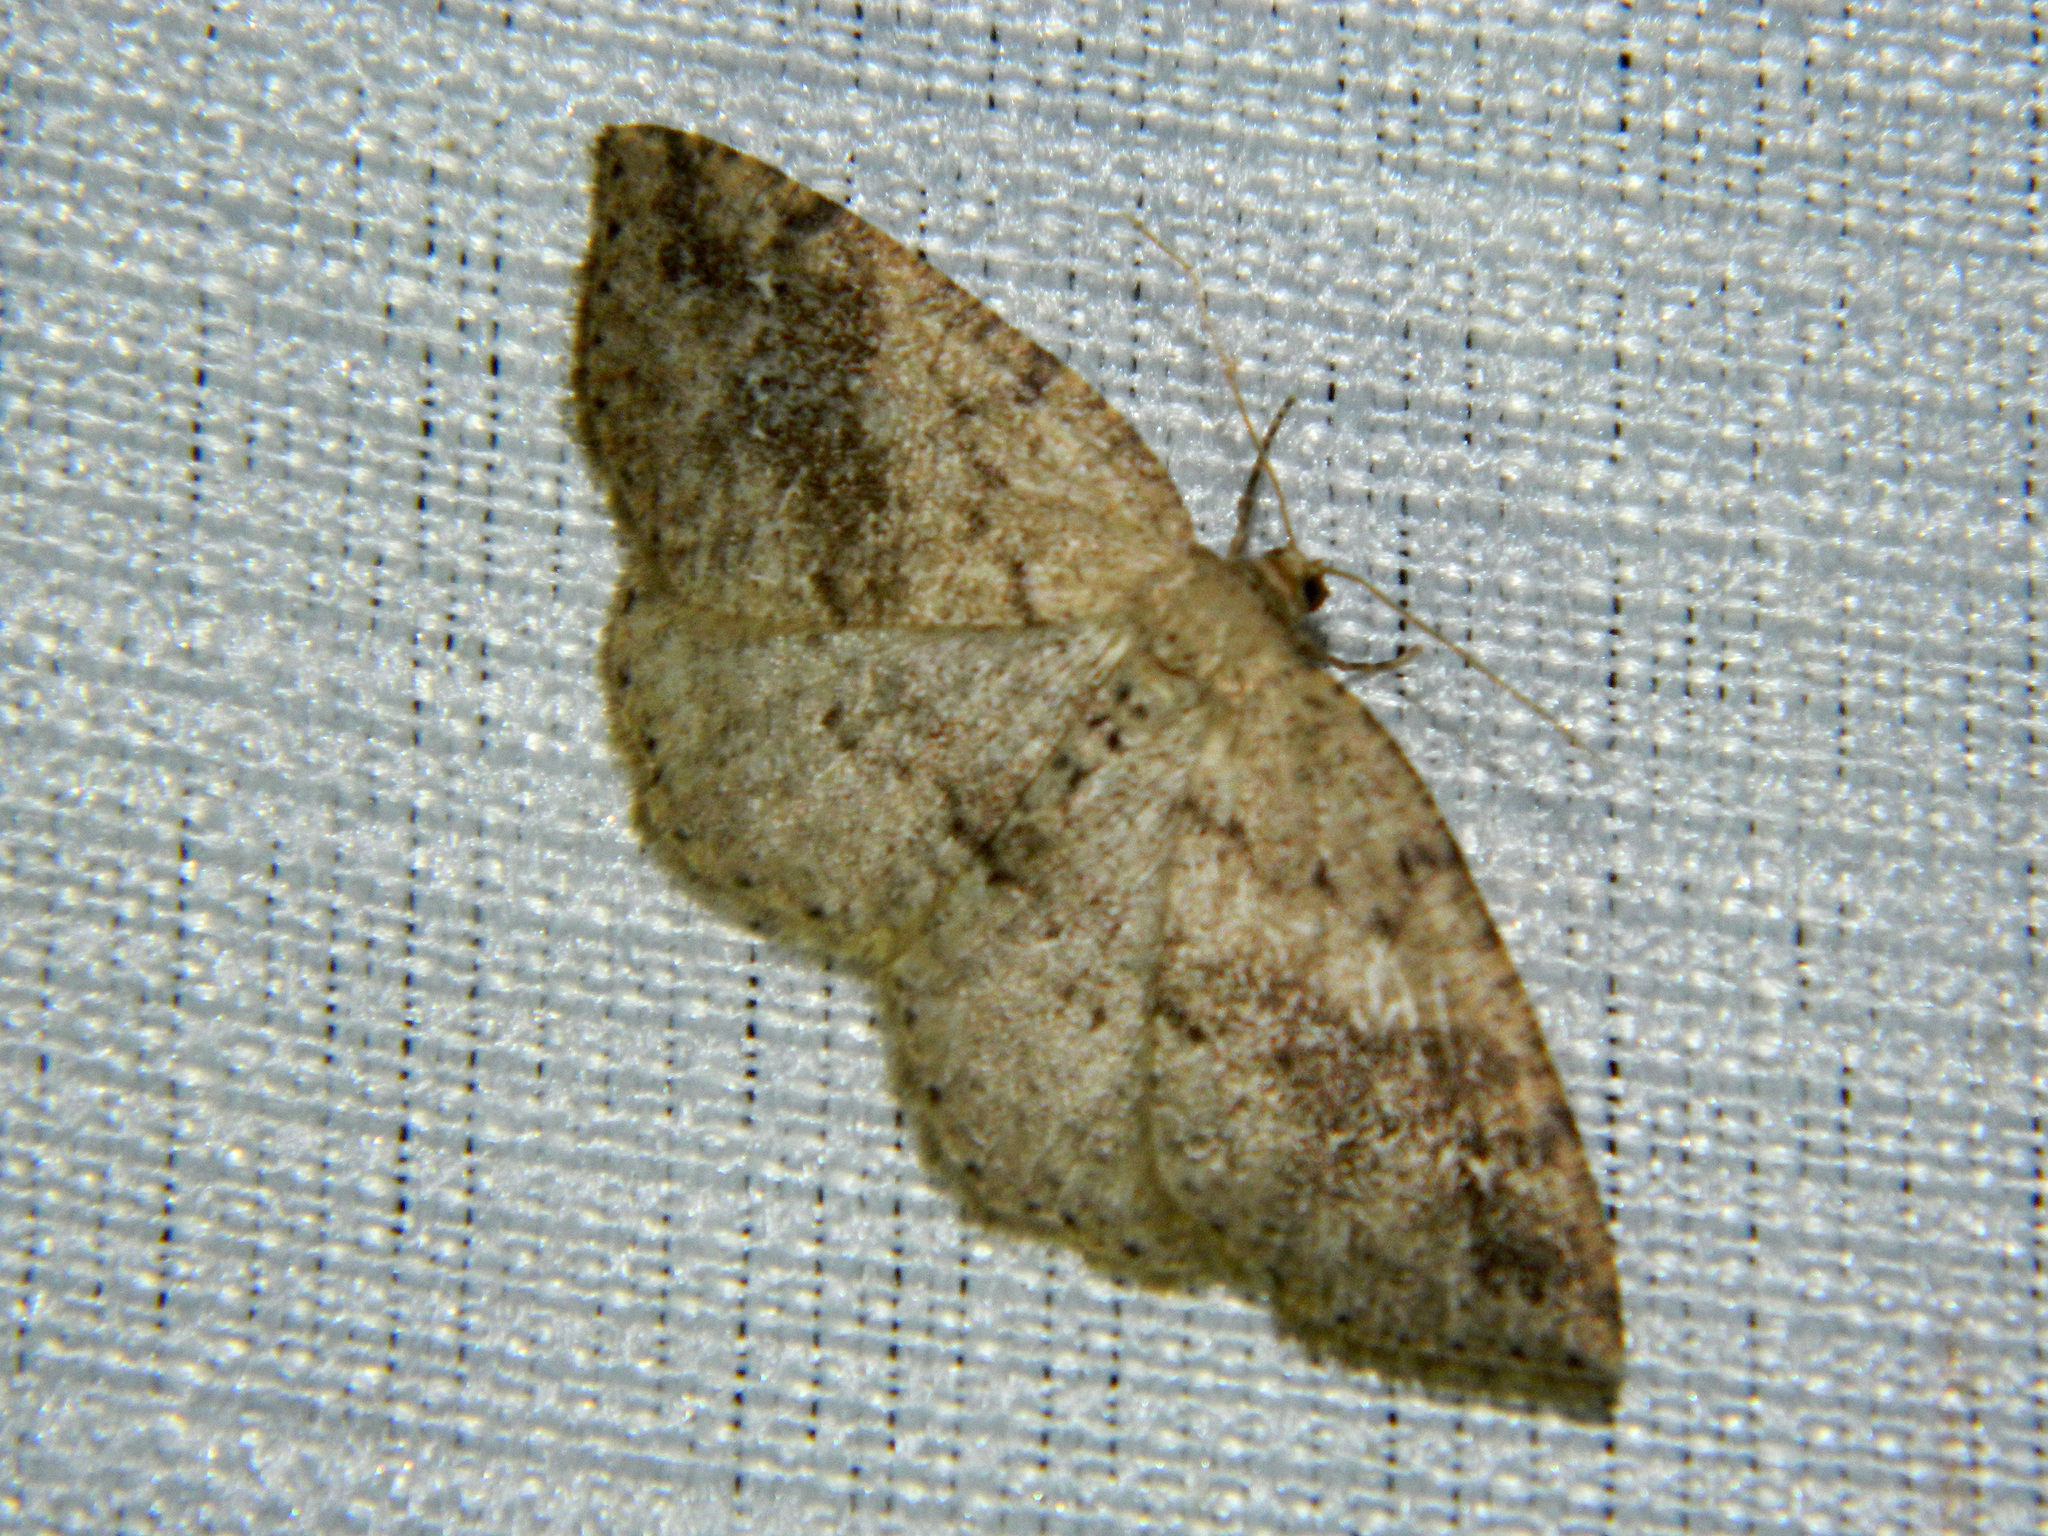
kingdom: Animalia
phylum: Arthropoda
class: Insecta
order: Lepidoptera
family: Geometridae
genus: Homochlodes
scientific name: Homochlodes fritillaria
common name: Pale homochlodes
